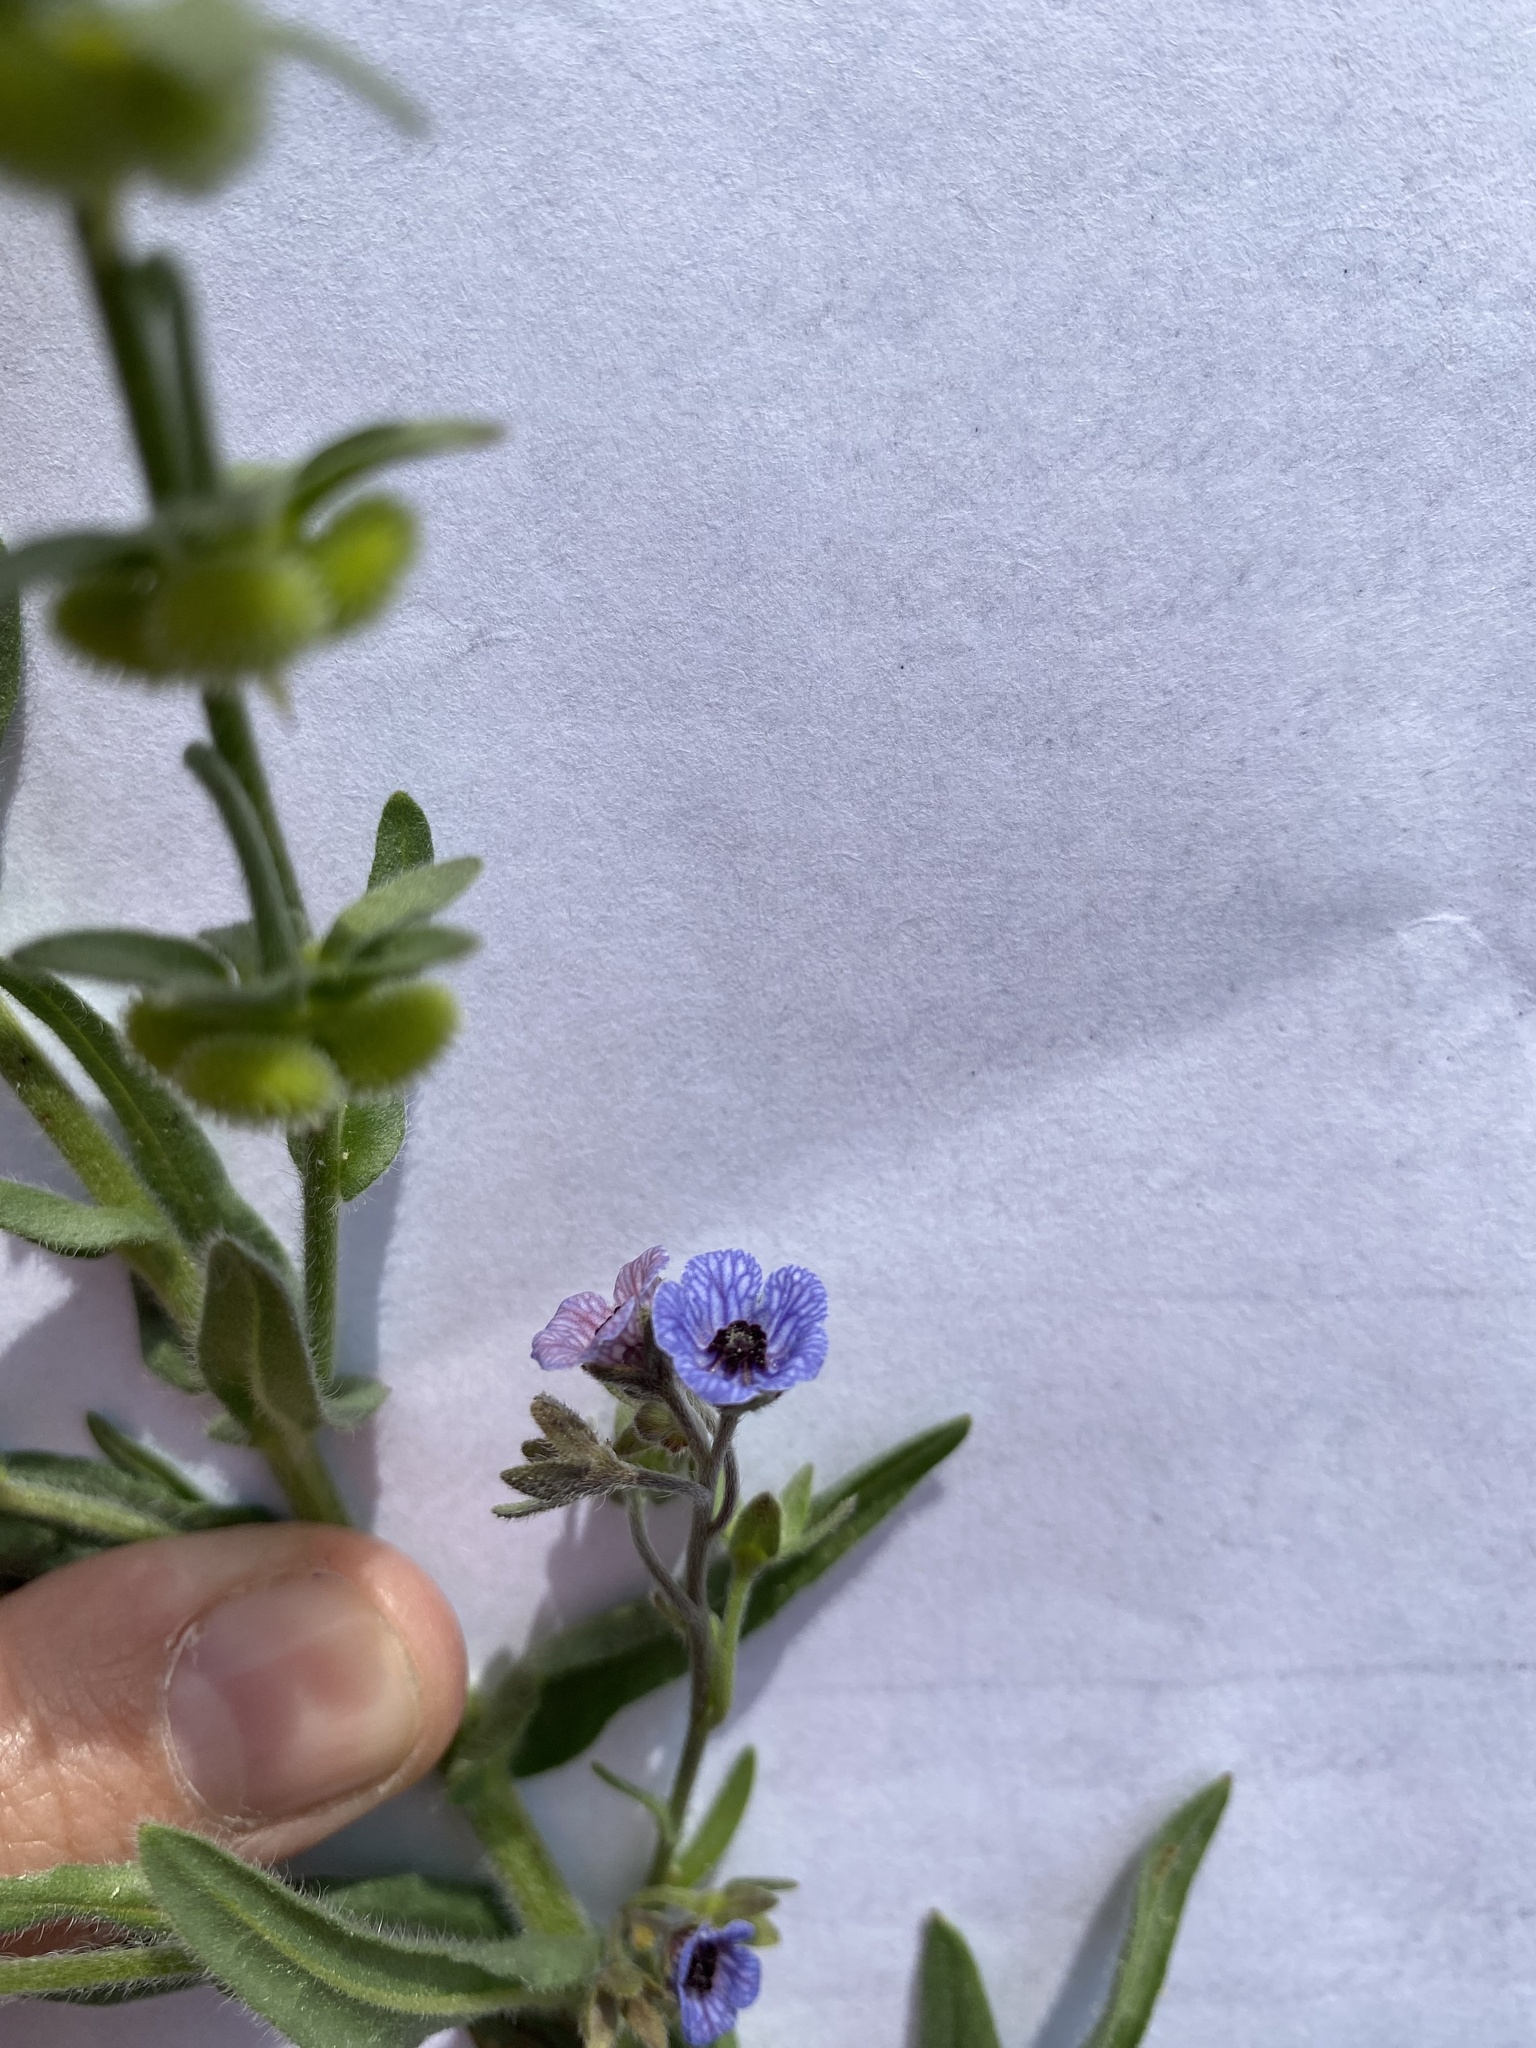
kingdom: Plantae
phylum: Tracheophyta
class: Magnoliopsida
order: Boraginales
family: Boraginaceae
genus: Cynoglossum
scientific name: Cynoglossum creticum
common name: Blue hound's tongue
